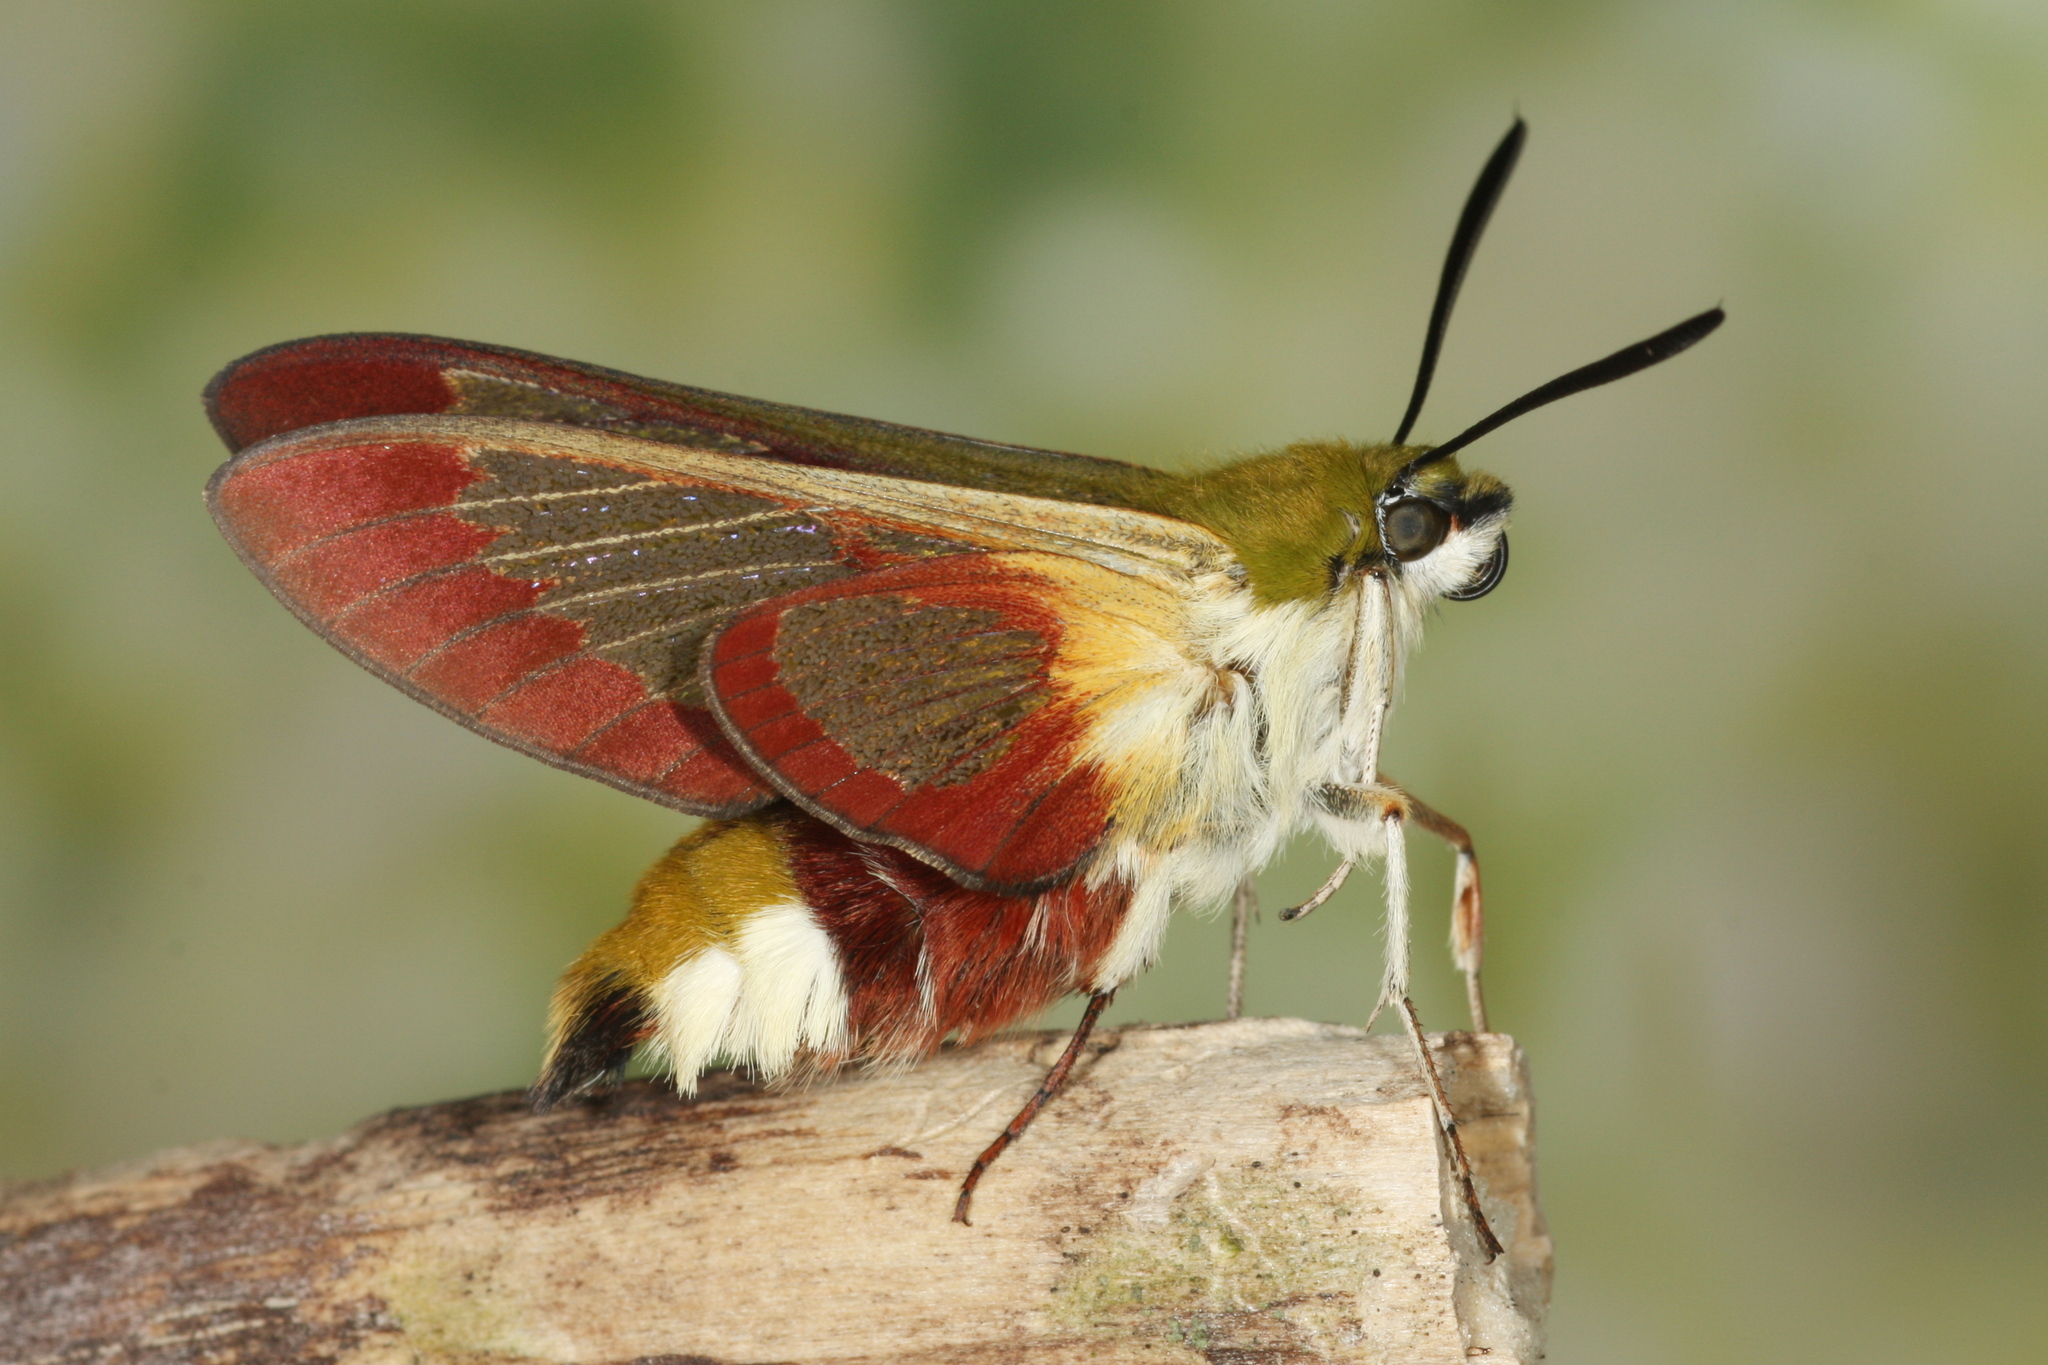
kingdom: Animalia
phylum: Arthropoda
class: Insecta
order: Lepidoptera
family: Sphingidae
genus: Hemaris
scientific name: Hemaris fuciformis
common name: Broad-bordered bee hawk-moth
